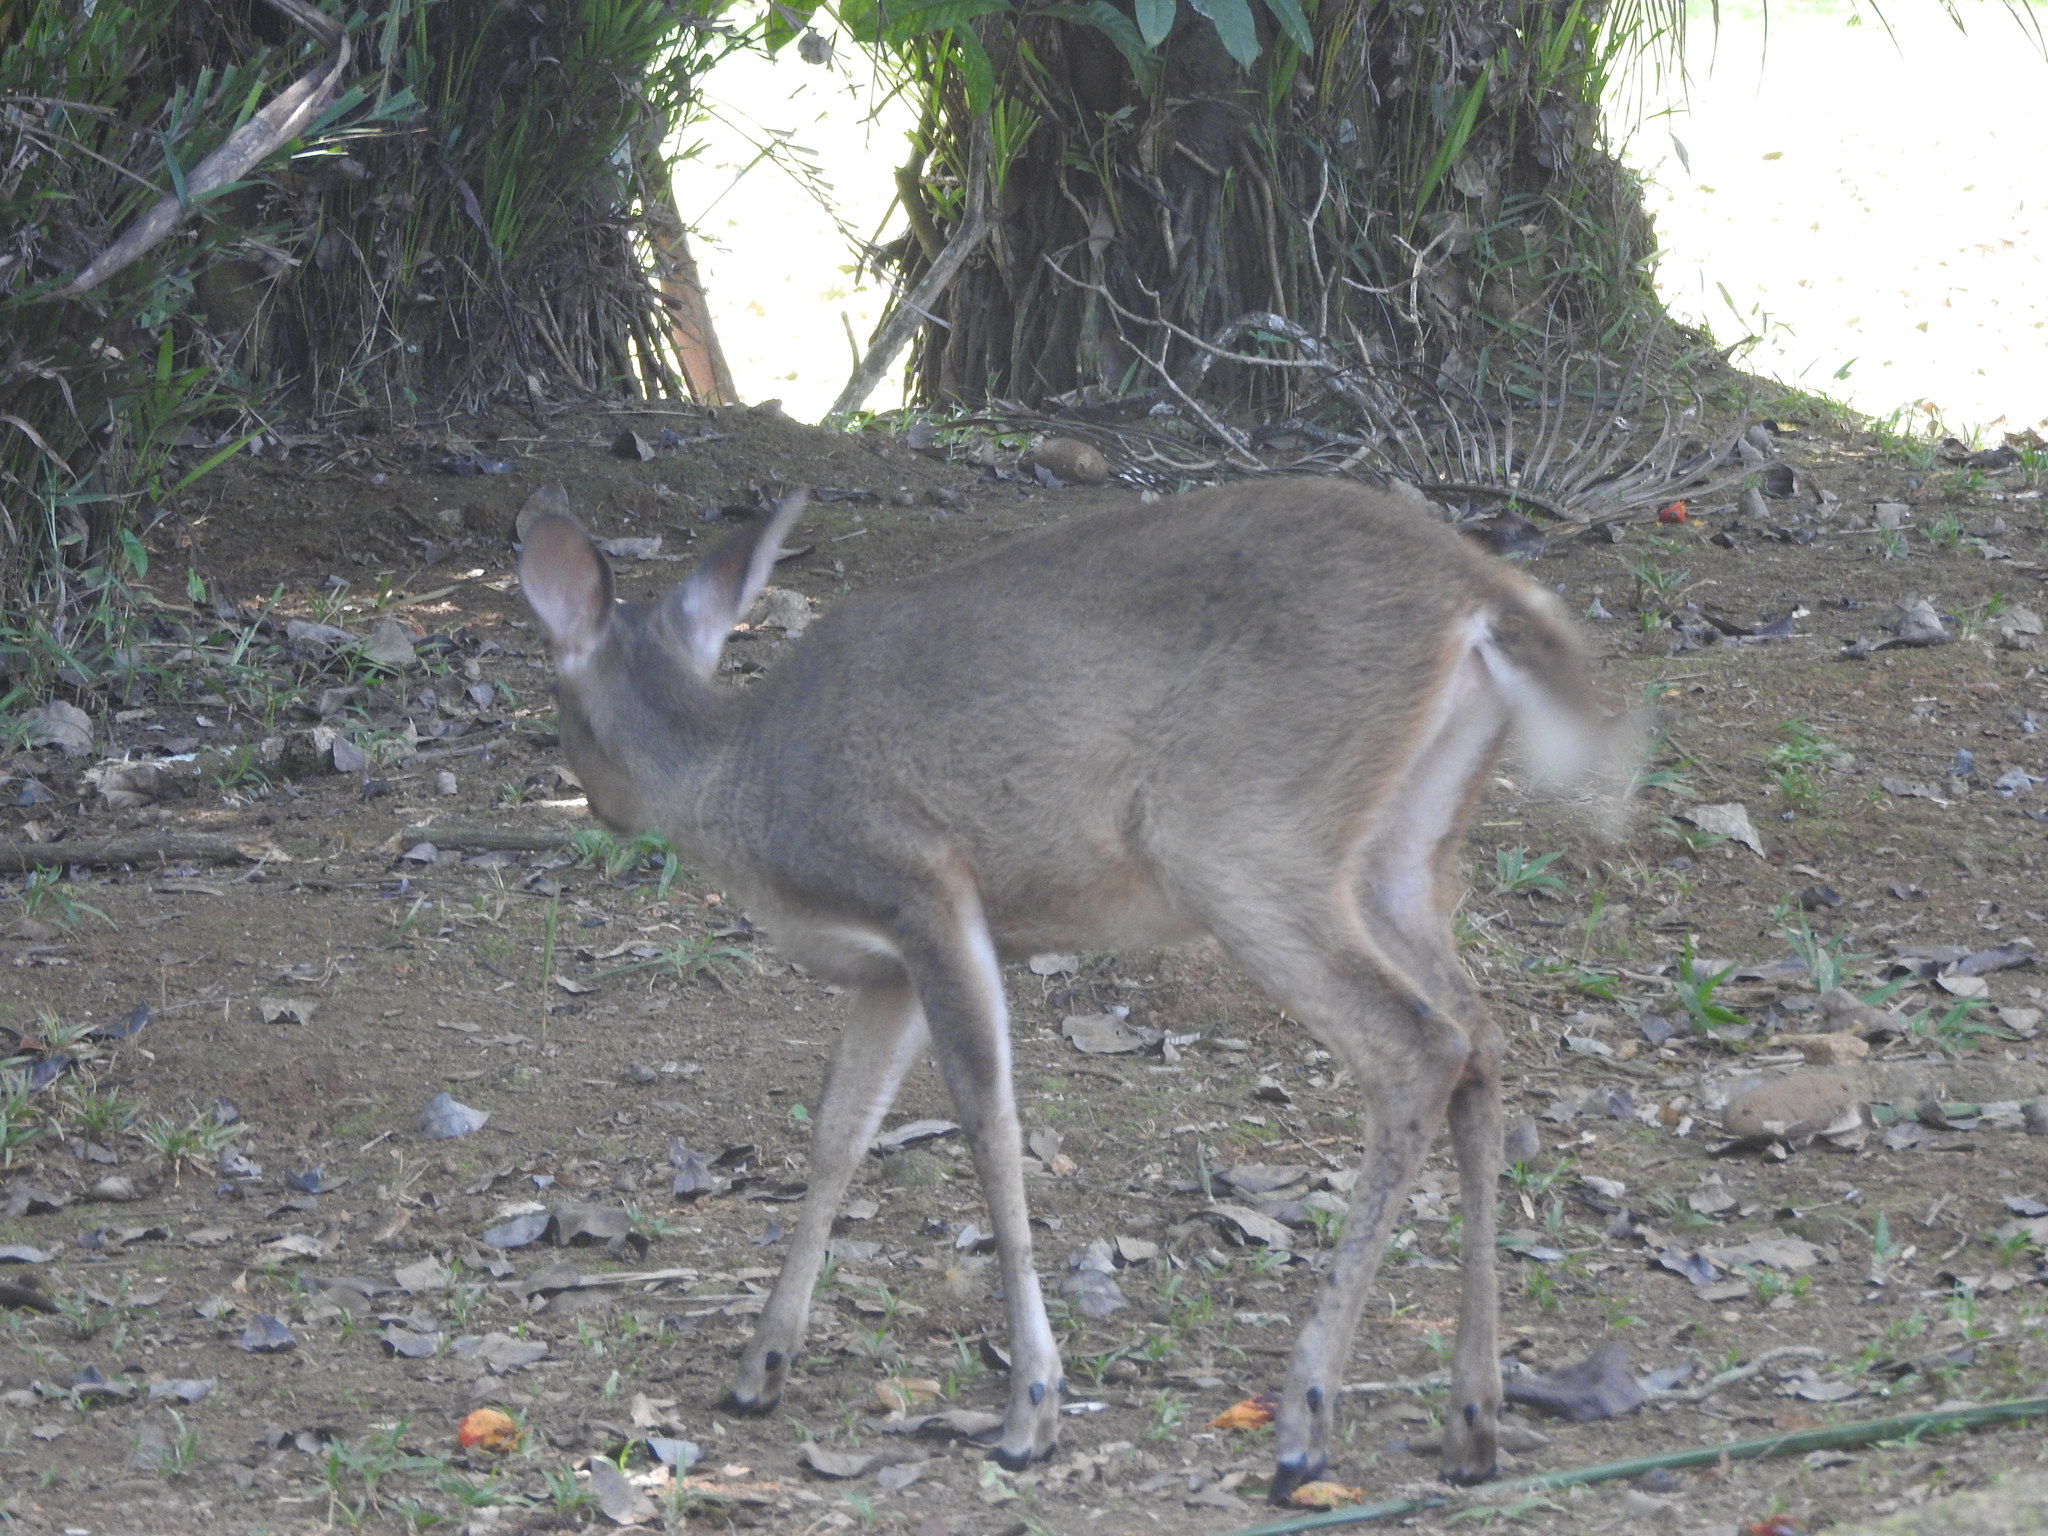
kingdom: Animalia
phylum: Chordata
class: Mammalia
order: Artiodactyla
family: Cervidae
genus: Odocoileus
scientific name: Odocoileus virginianus
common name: White-tailed deer
